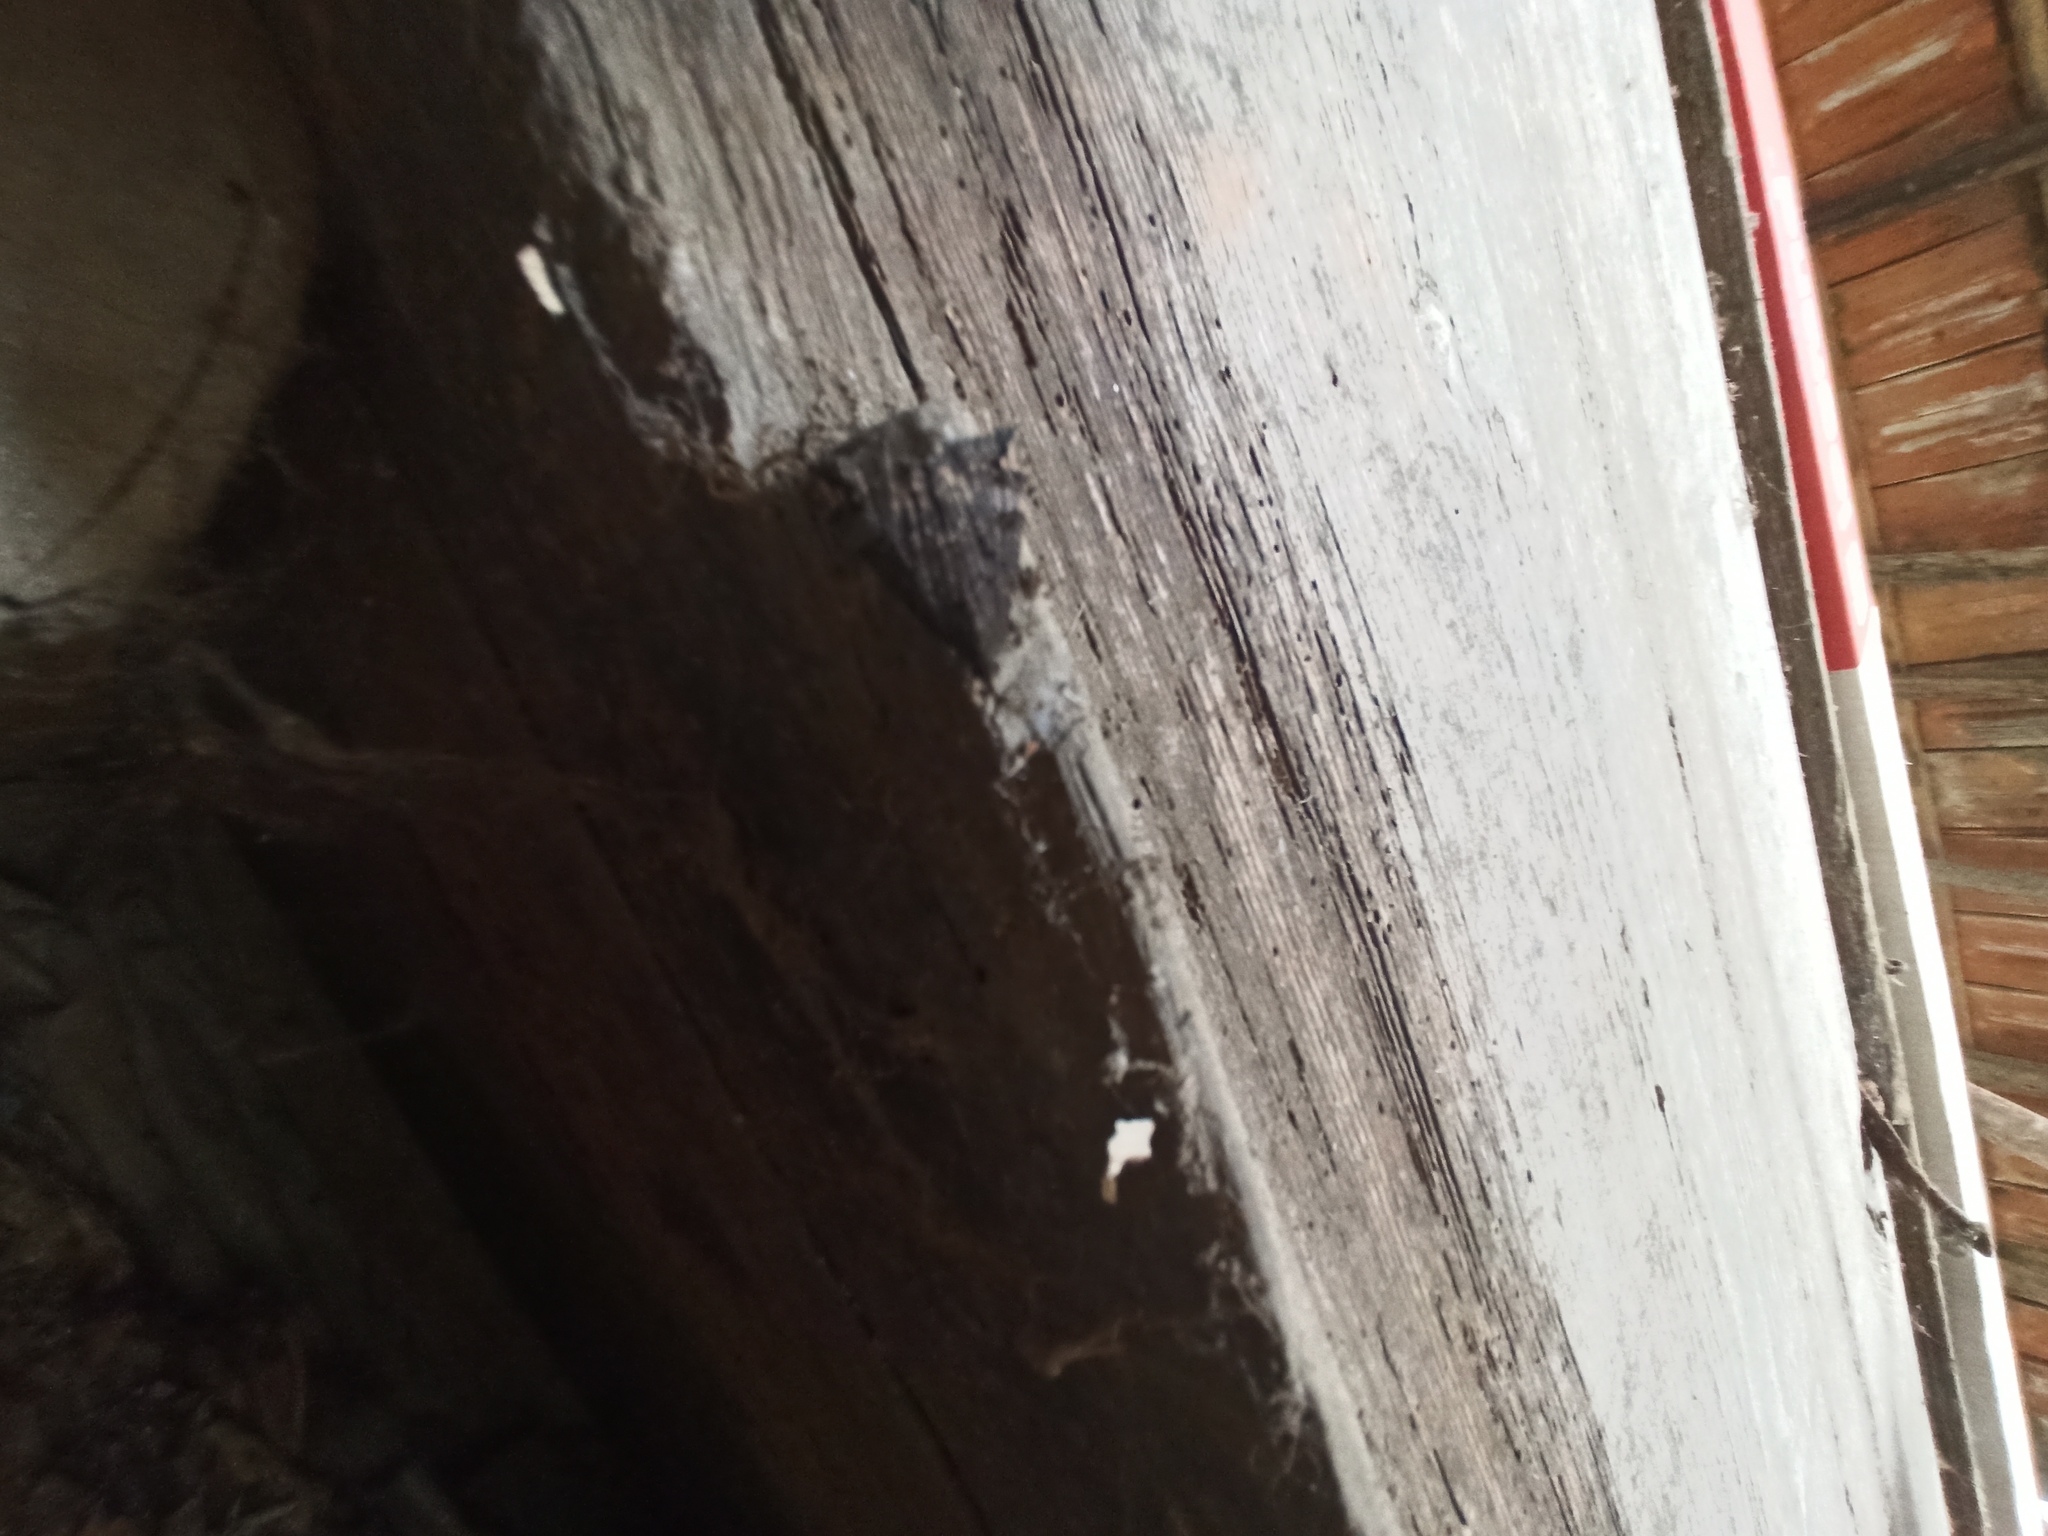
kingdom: Animalia
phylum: Arthropoda
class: Insecta
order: Lepidoptera
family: Erebidae
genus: Hypena
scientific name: Hypena obsitalis
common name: Bloxworth snout
